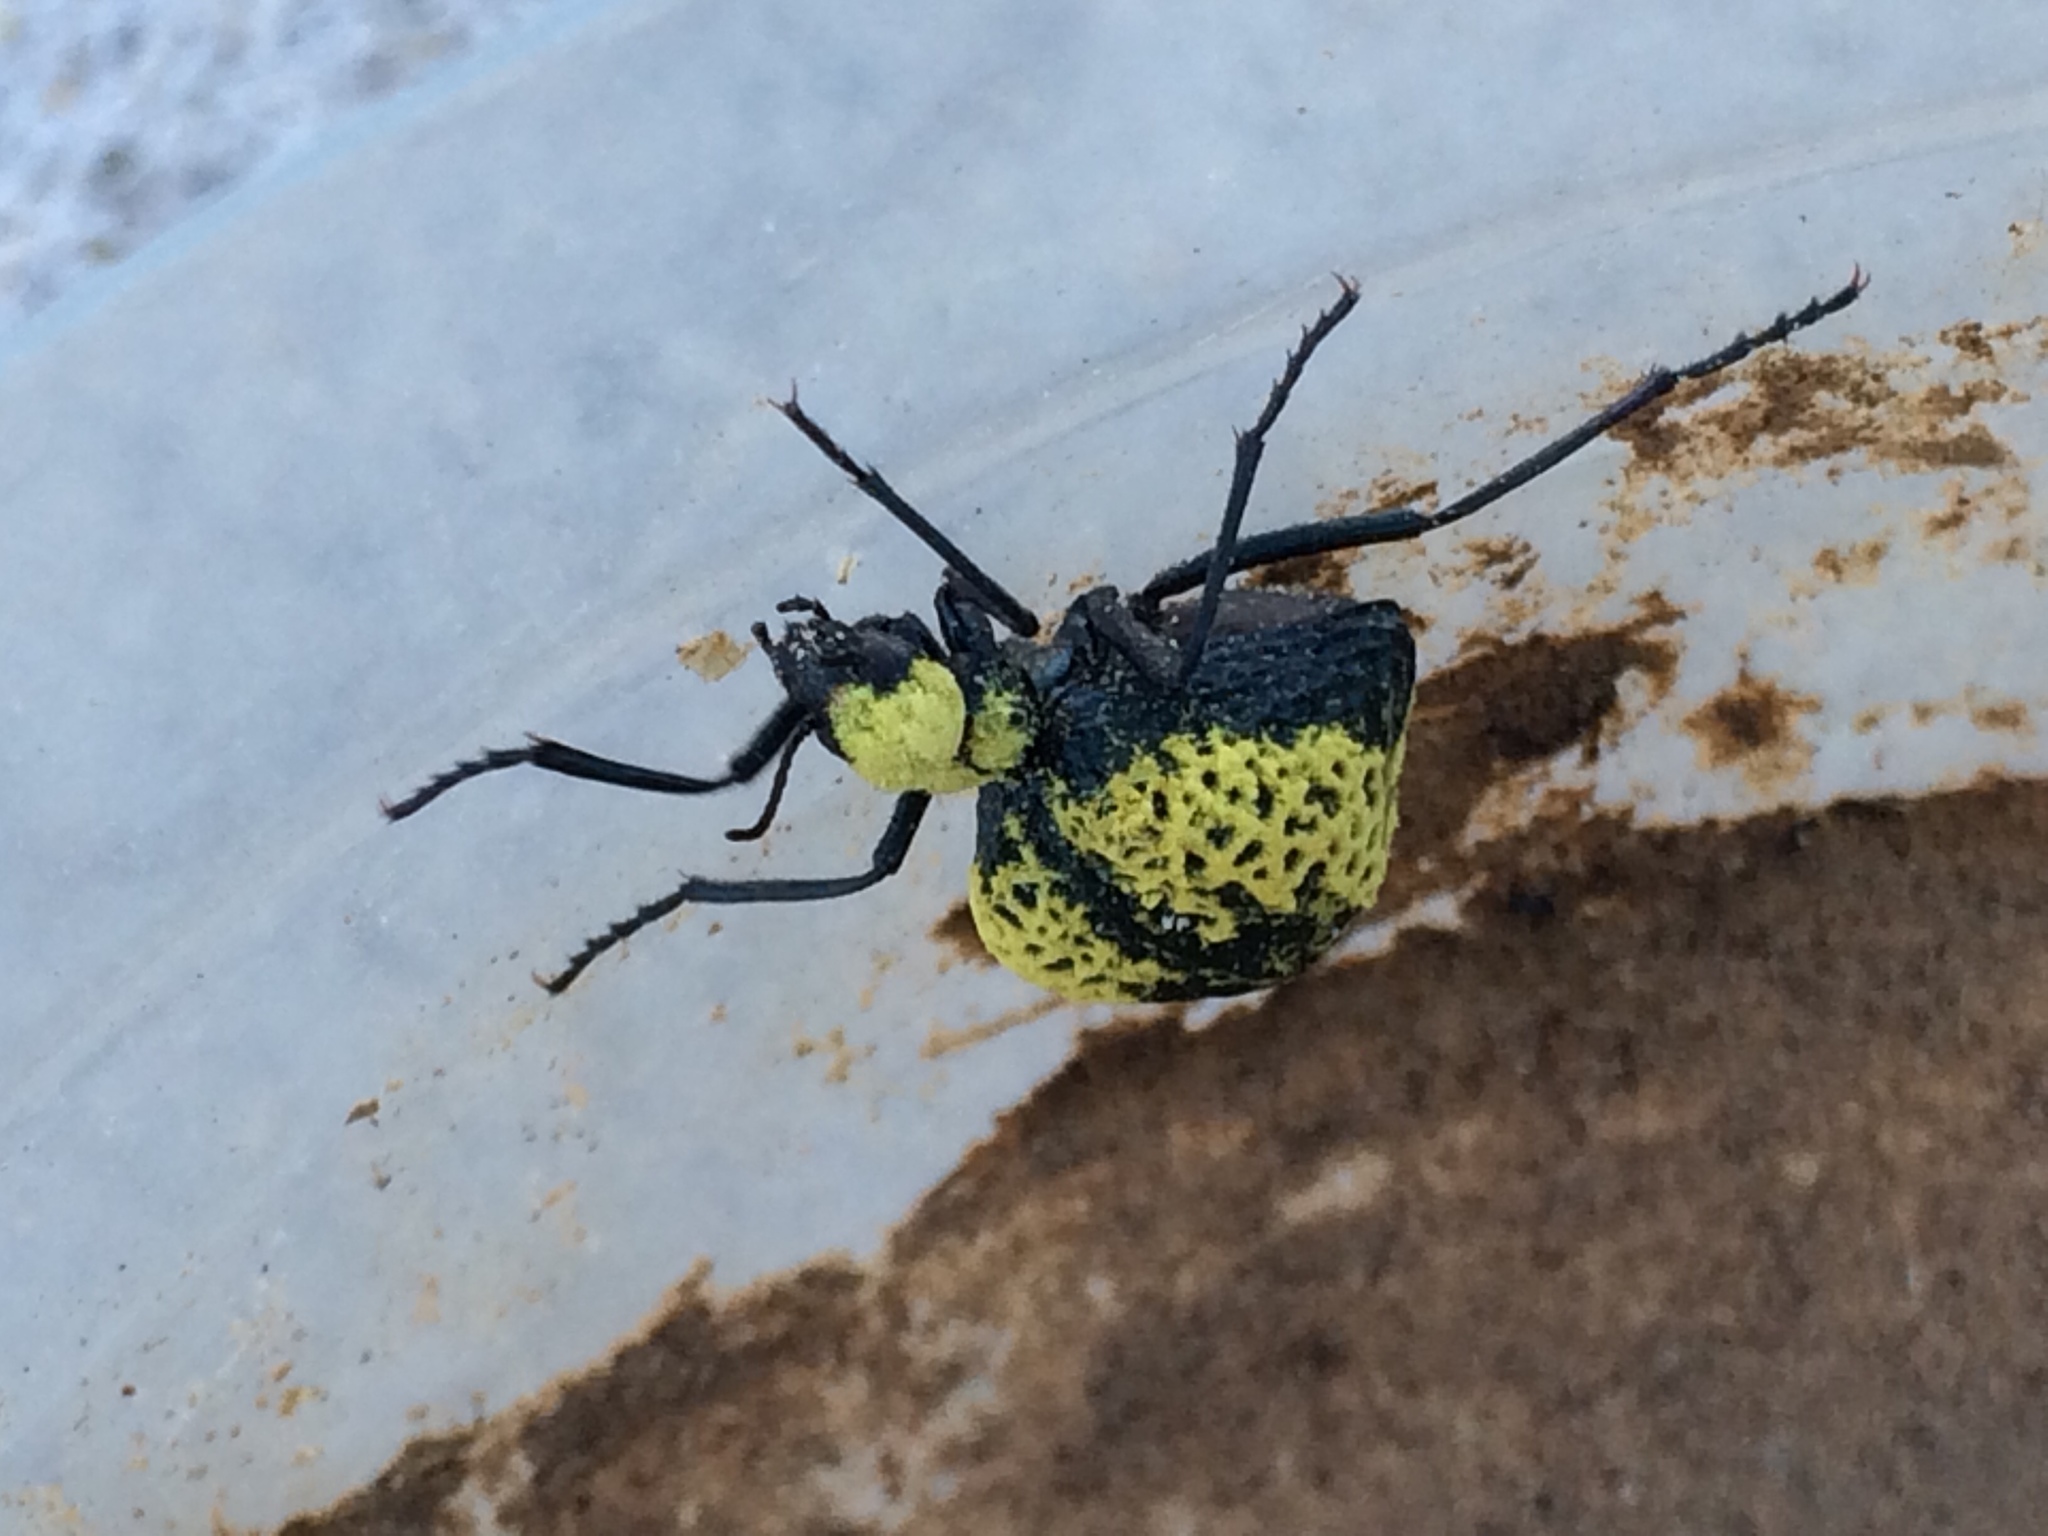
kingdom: Animalia
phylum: Arthropoda
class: Insecta
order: Coleoptera
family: Meloidae
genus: Cysteodemus
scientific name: Cysteodemus armatus
